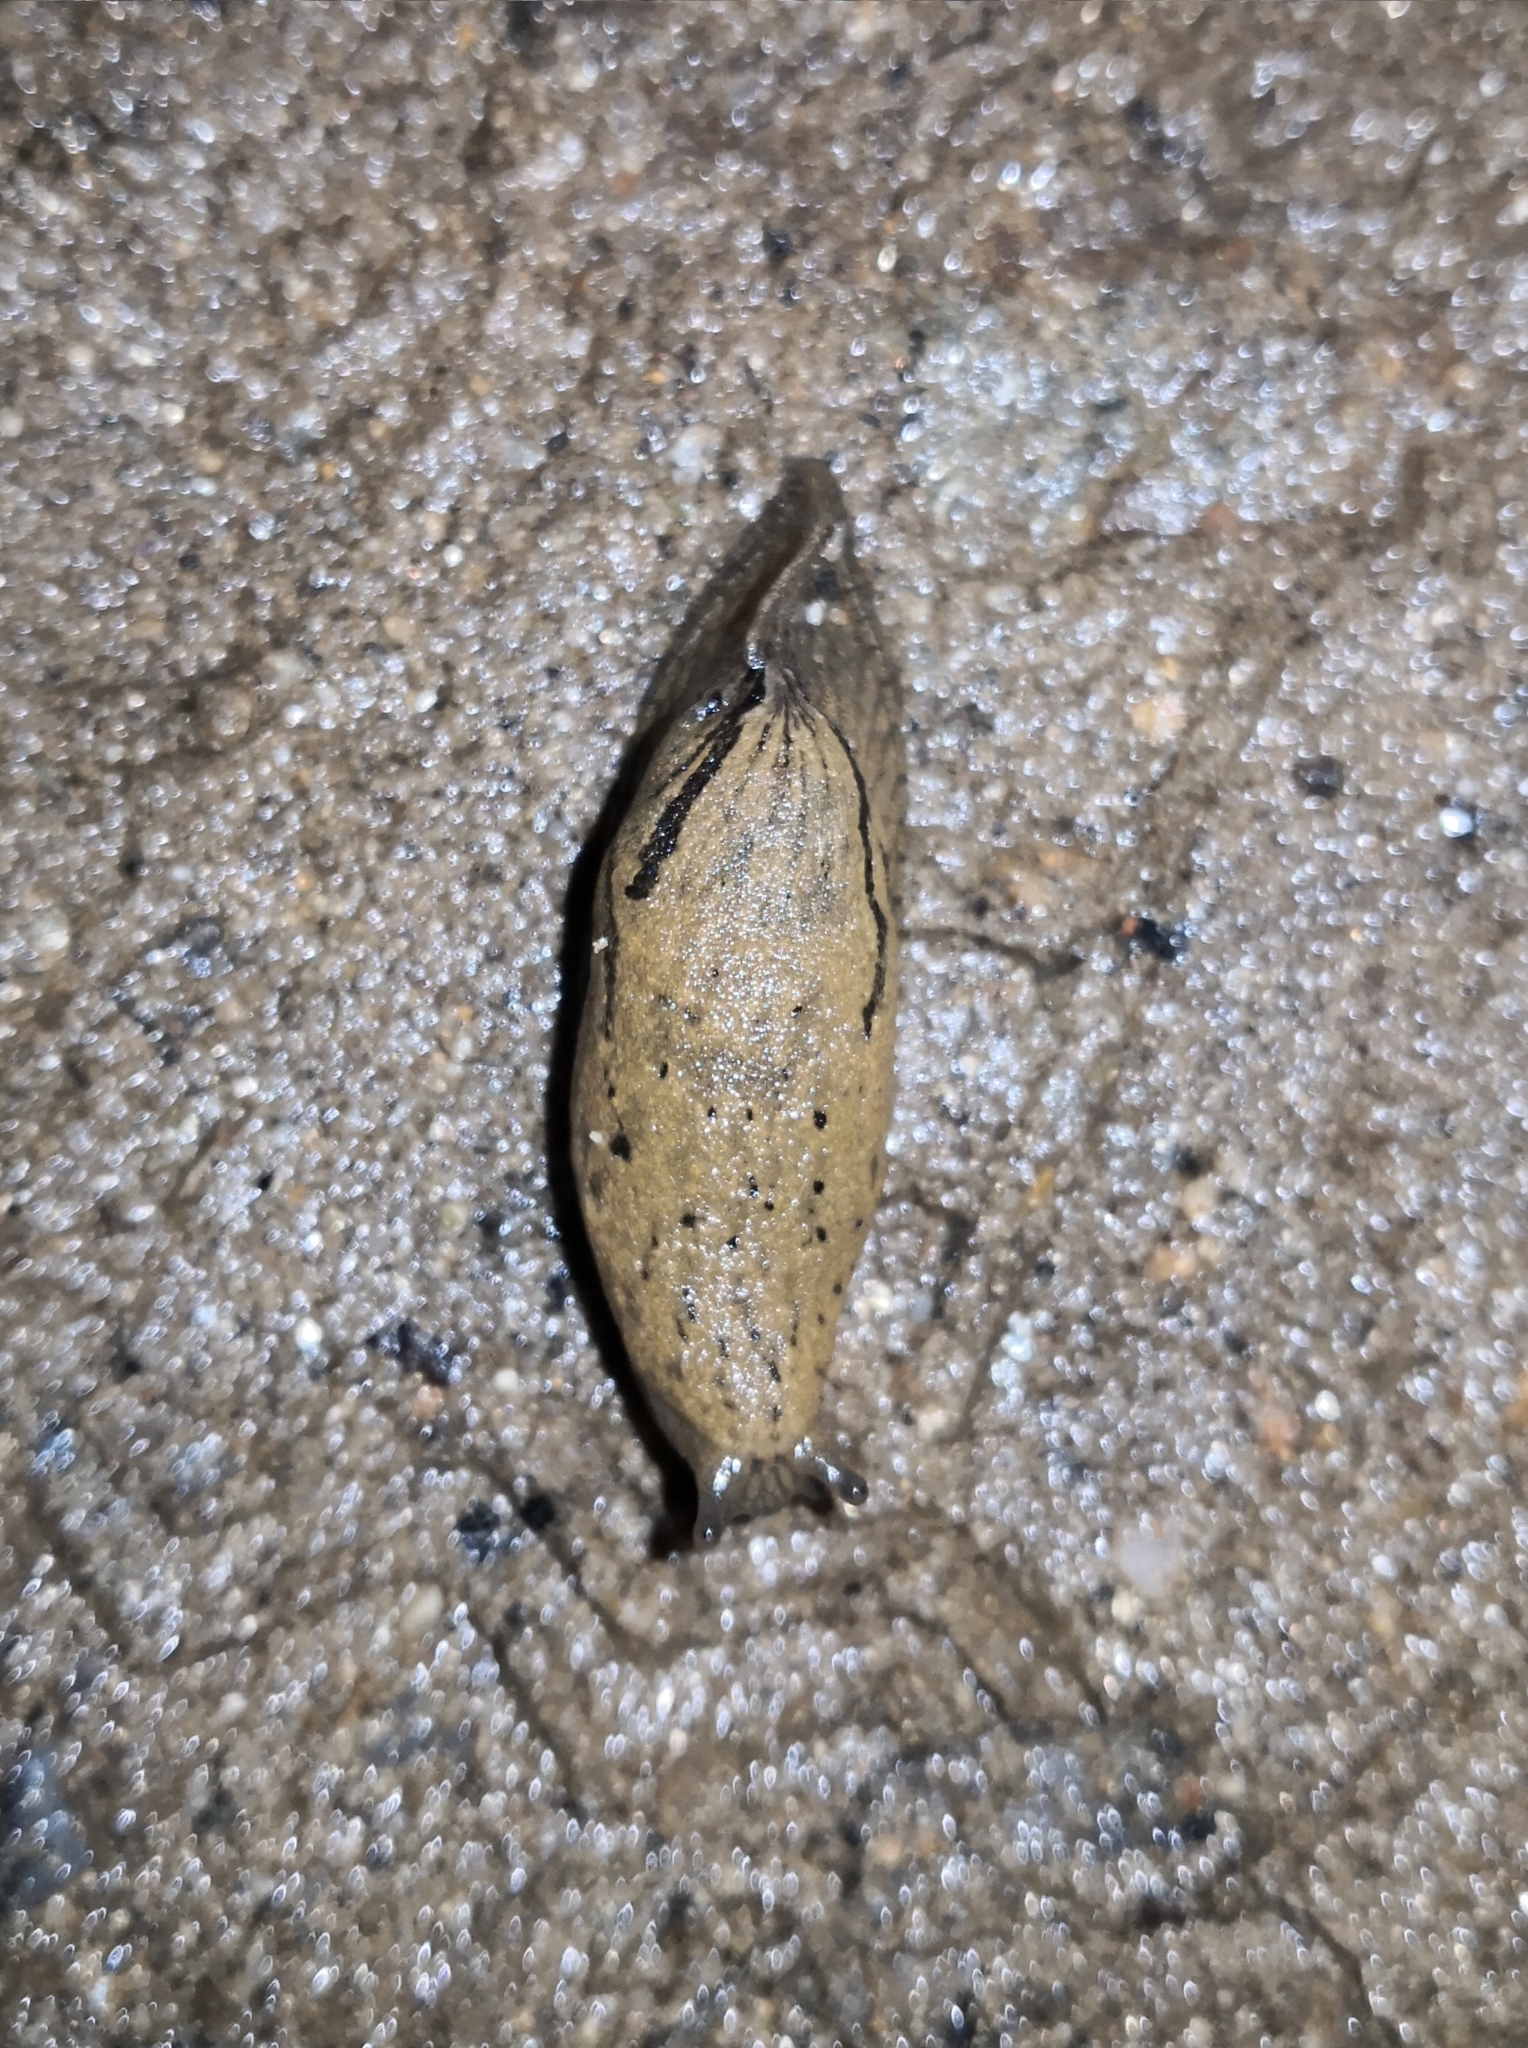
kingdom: Animalia
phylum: Mollusca
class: Gastropoda
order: Stylommatophora
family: Parmacellidae
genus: Drusia
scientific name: Drusia valenciennii
